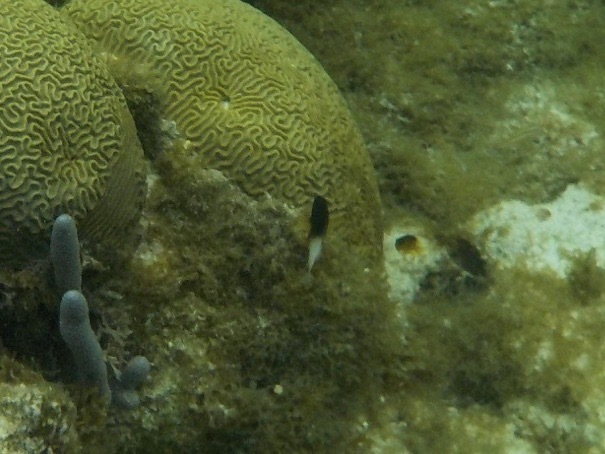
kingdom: Animalia
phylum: Chordata
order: Perciformes
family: Pomacentridae
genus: Stegastes
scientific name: Stegastes partitus
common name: Bicolor damselfish
